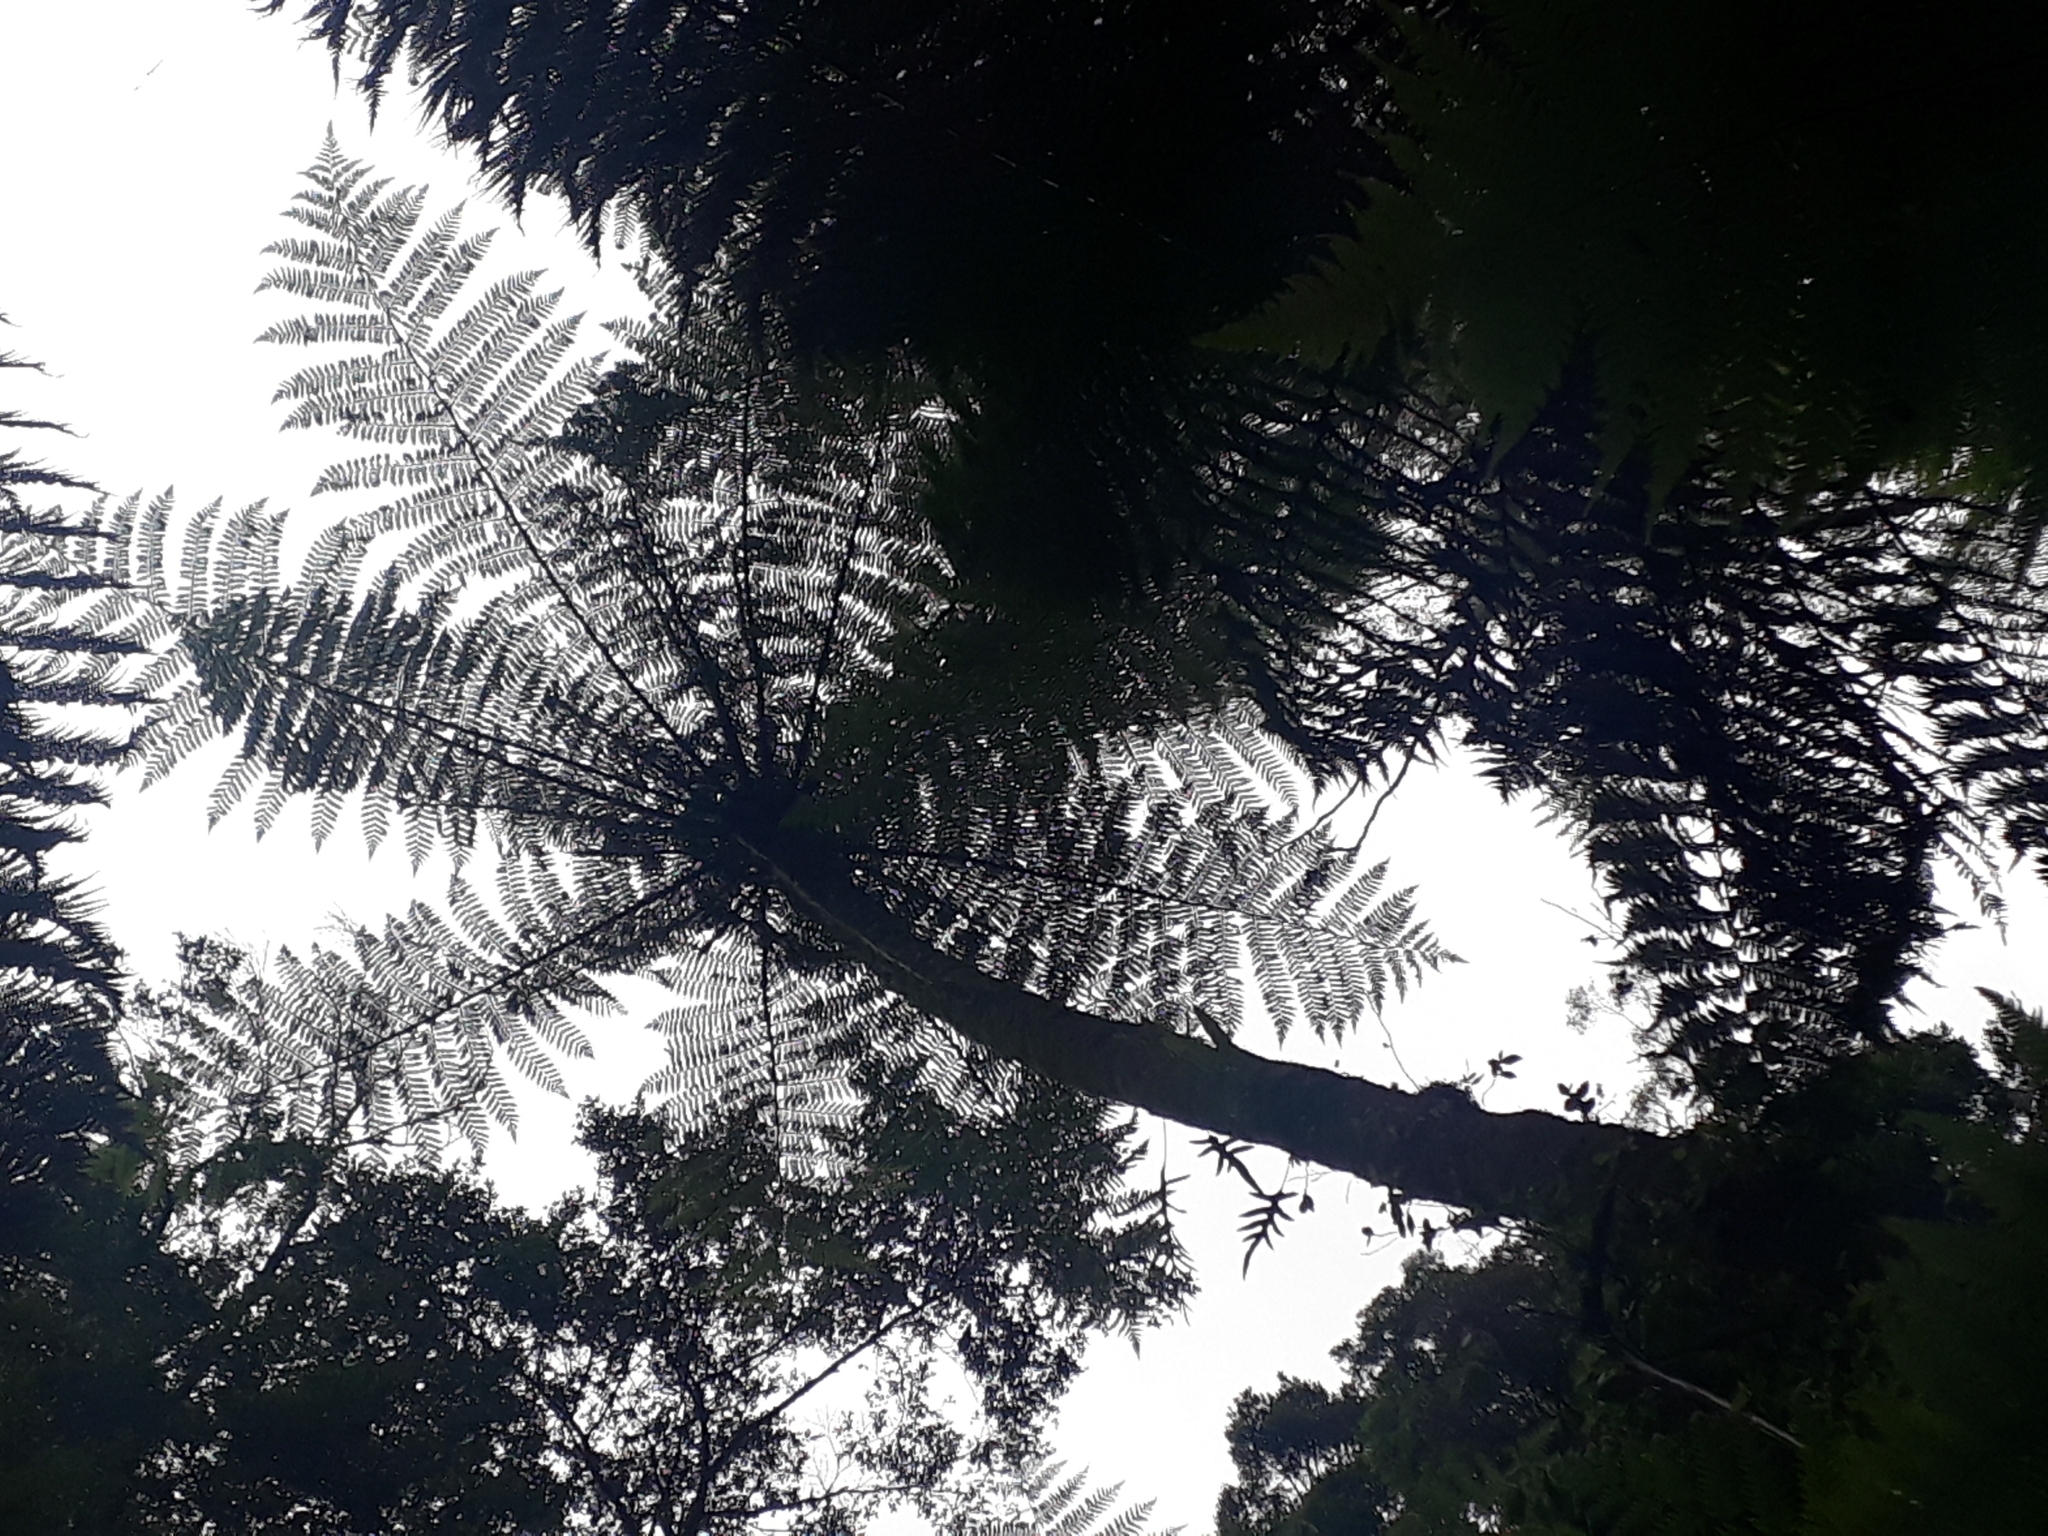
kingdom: Plantae
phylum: Tracheophyta
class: Polypodiopsida
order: Cyatheales
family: Cyatheaceae
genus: Cyathea
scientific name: Cyathea cunninghamii
